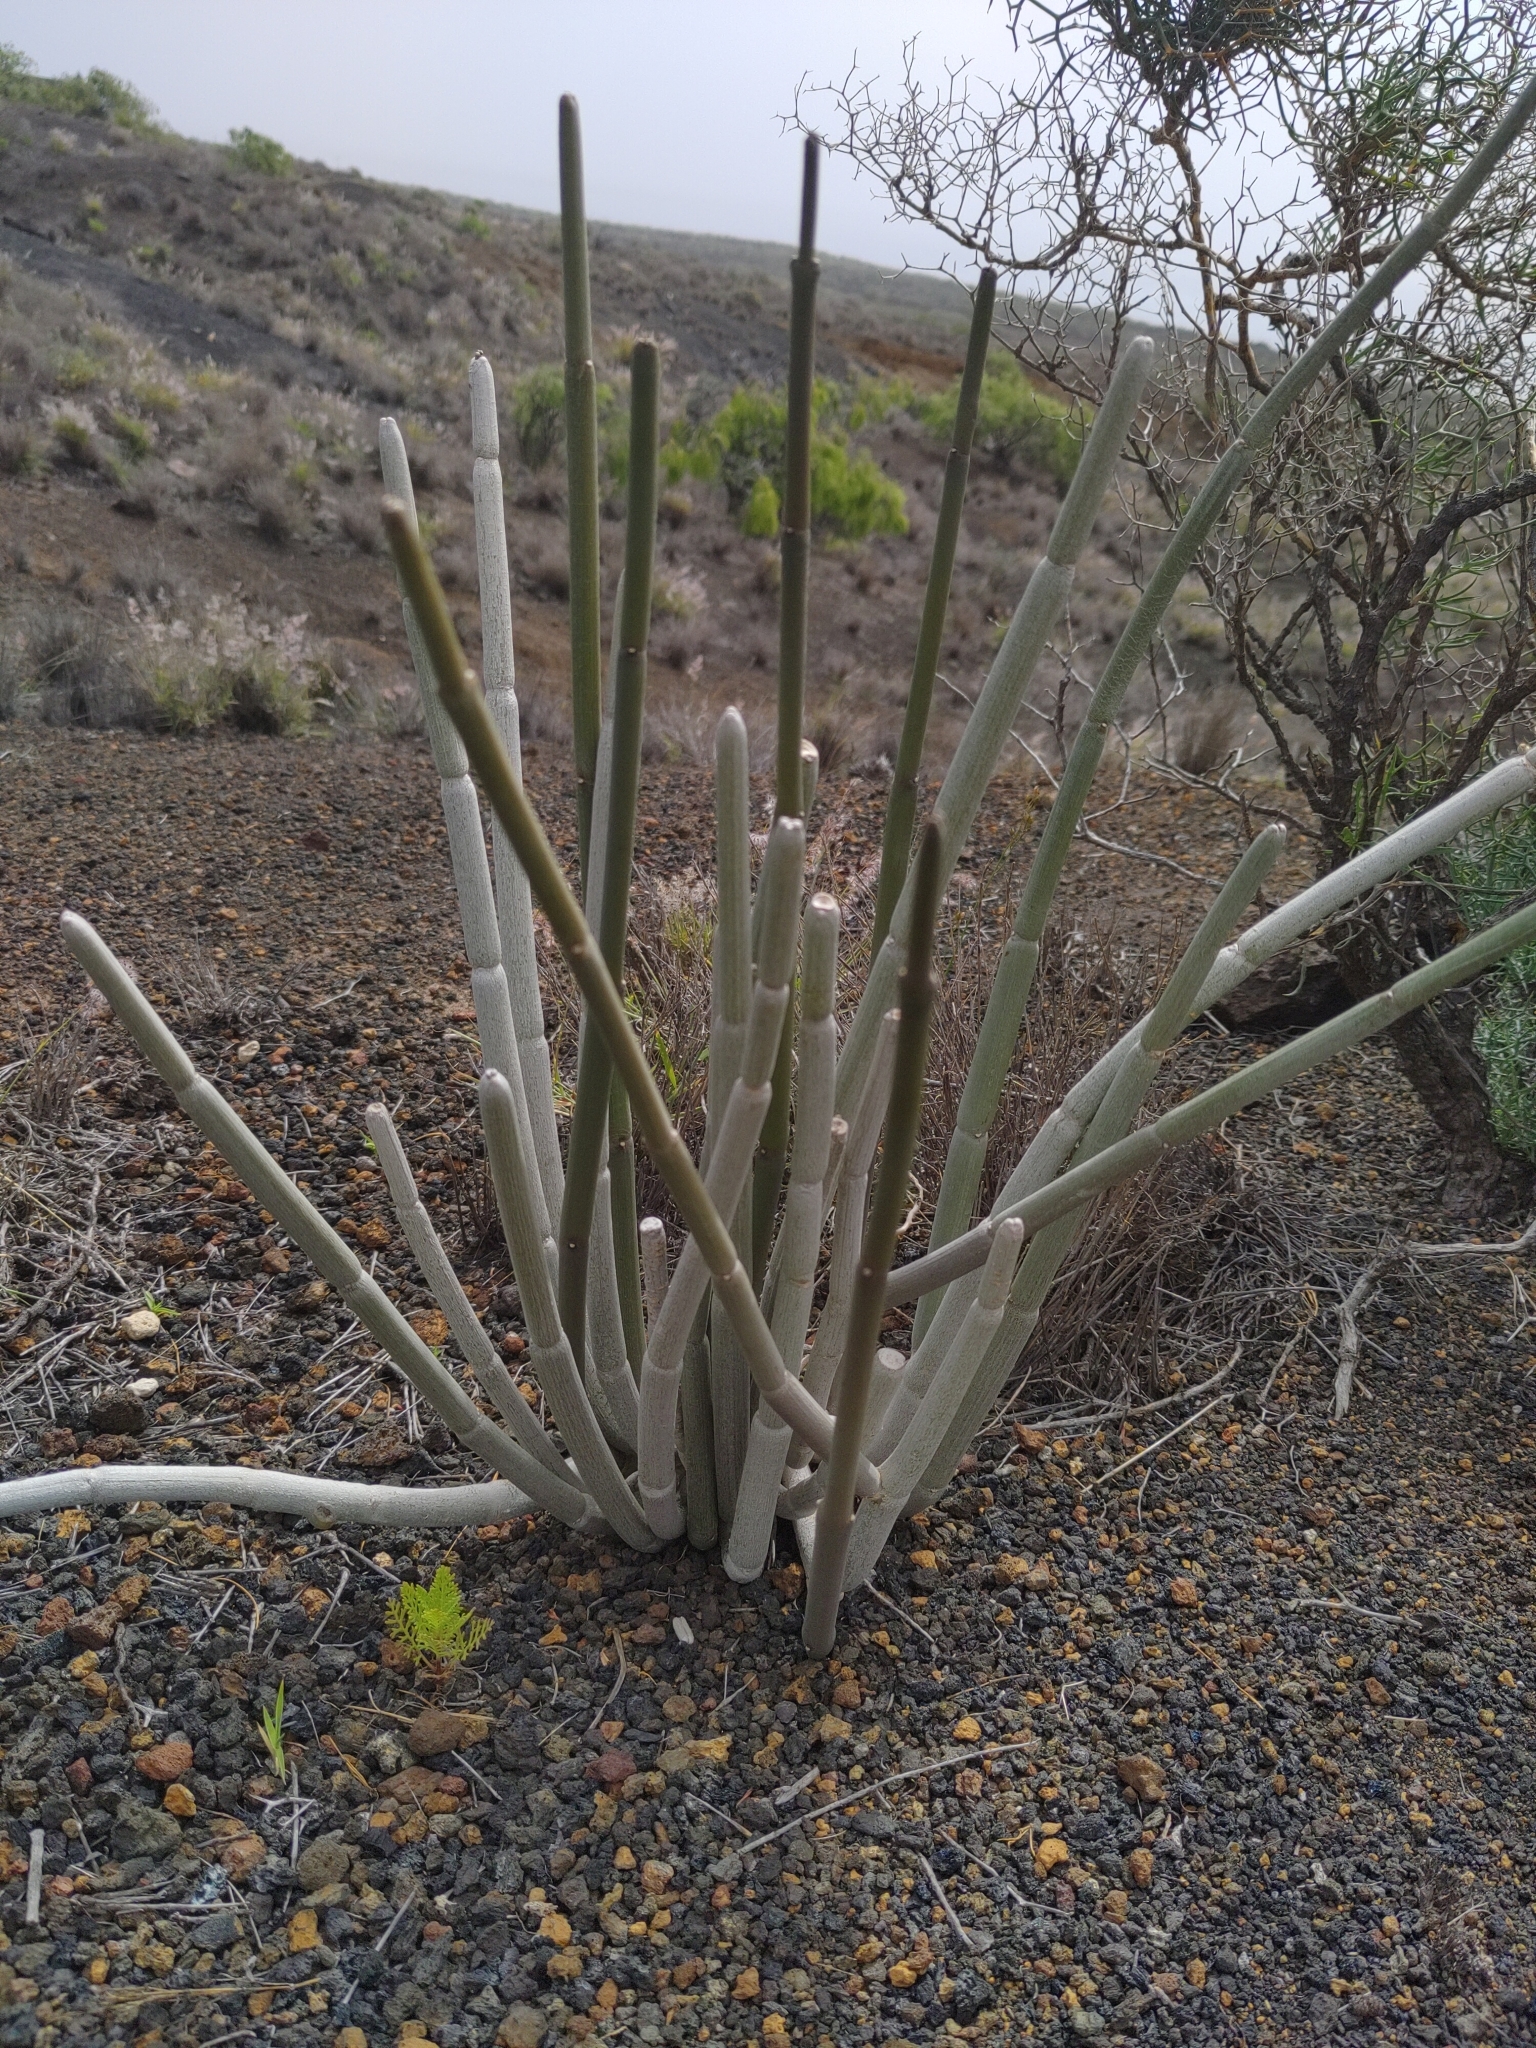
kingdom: Plantae
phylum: Tracheophyta
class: Magnoliopsida
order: Gentianales
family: Apocynaceae
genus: Ceropegia
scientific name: Ceropegia fusca
